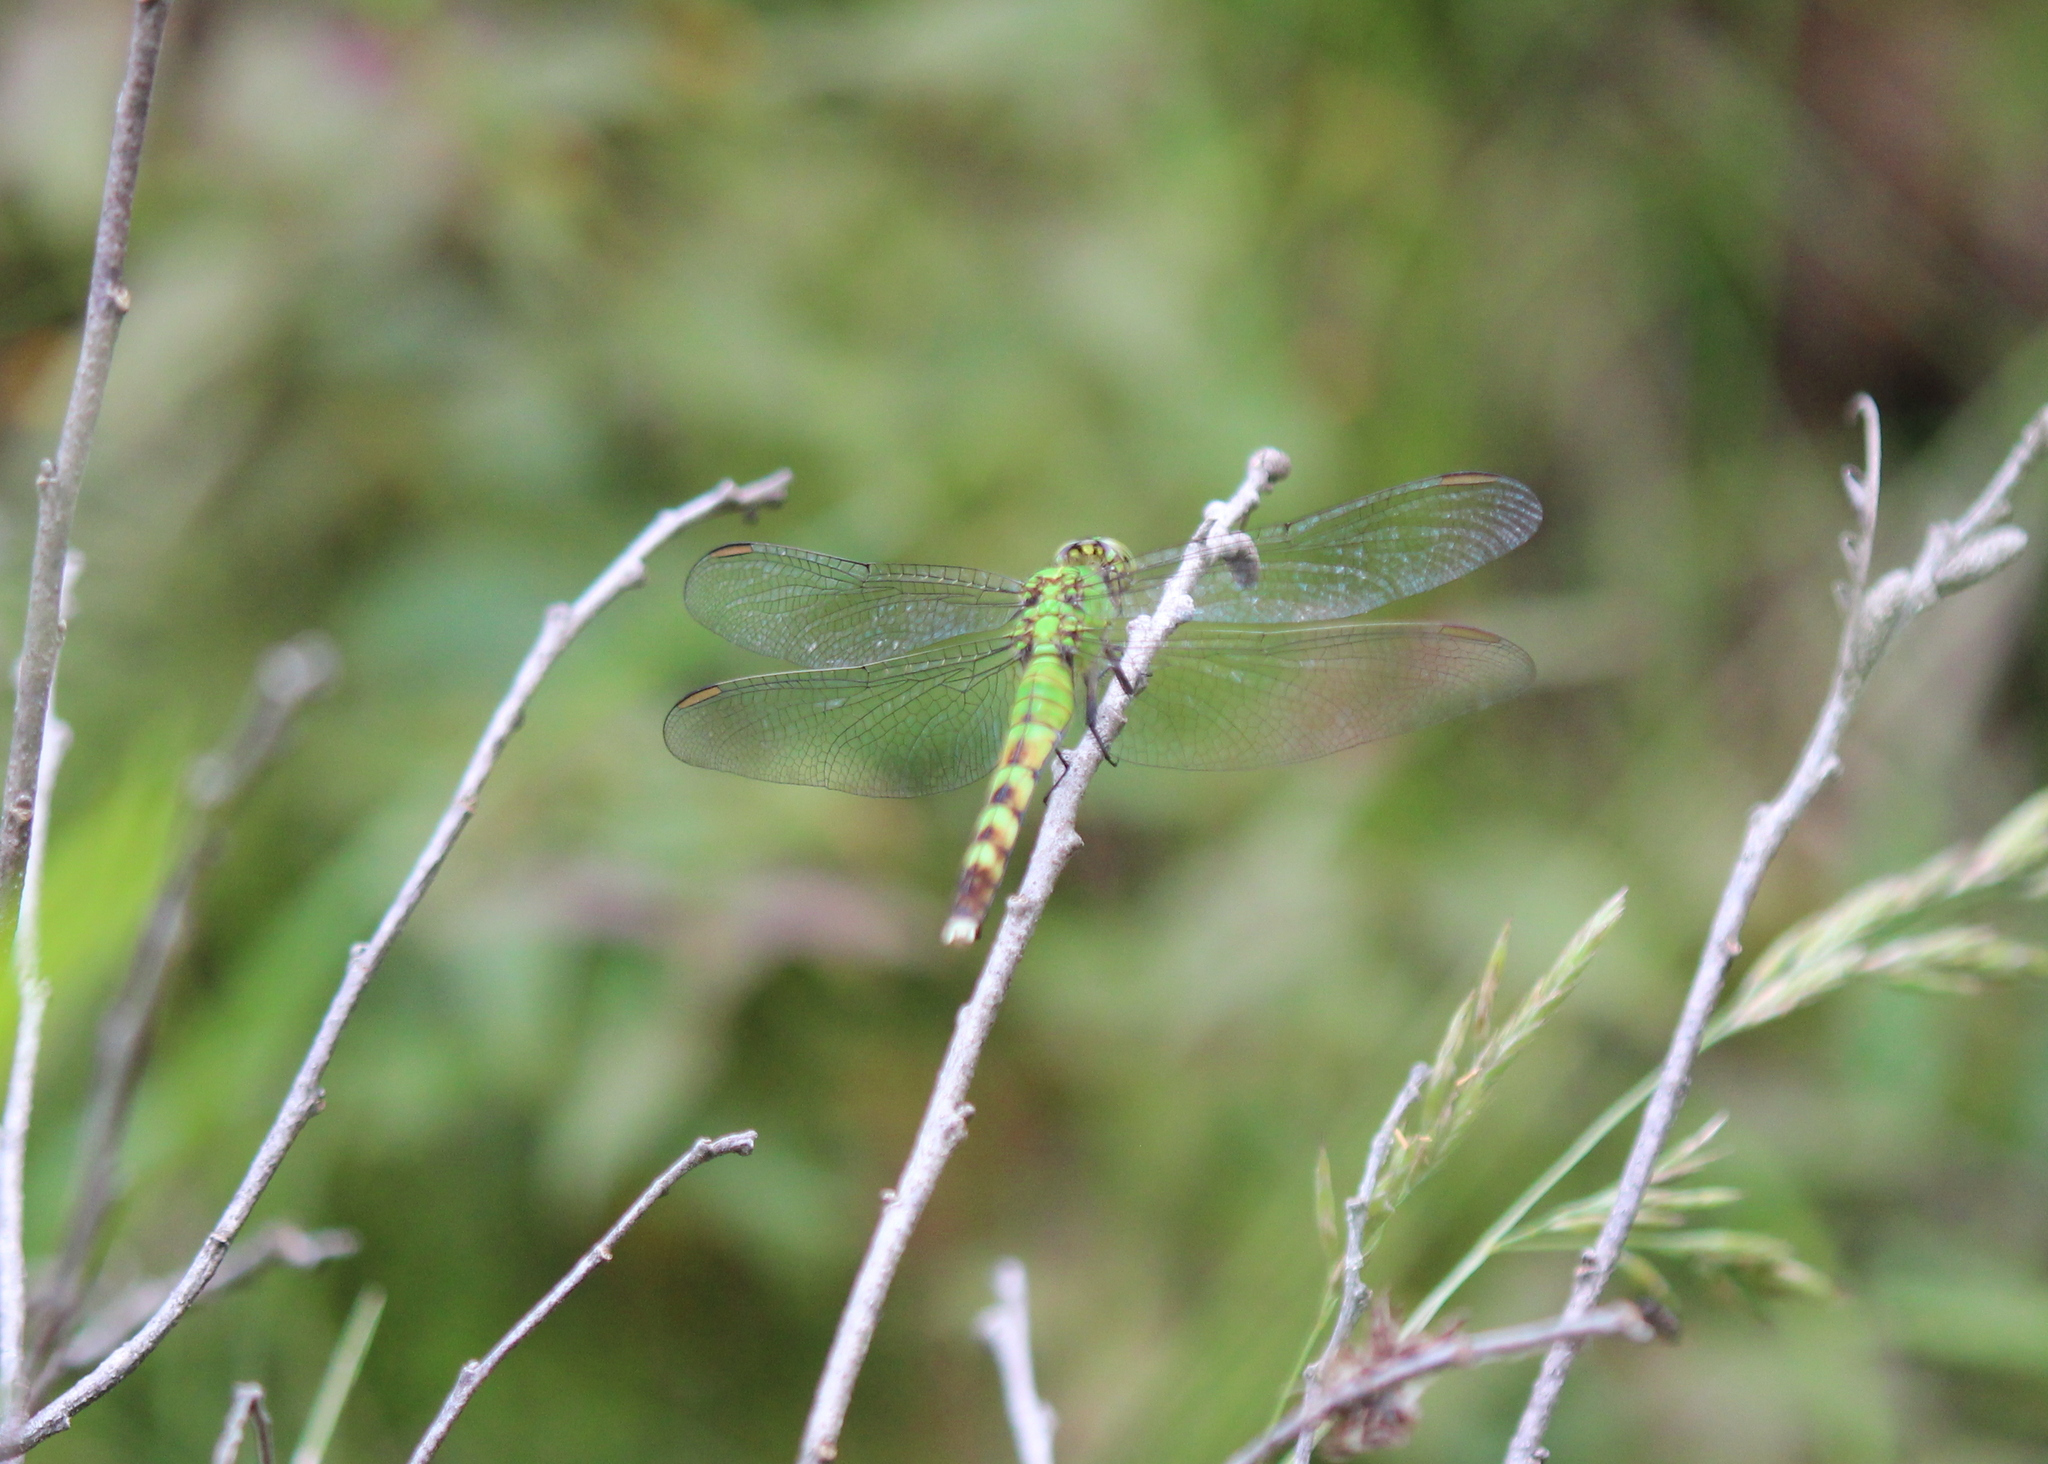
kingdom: Animalia
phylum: Arthropoda
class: Insecta
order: Odonata
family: Libellulidae
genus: Erythemis
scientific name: Erythemis simplicicollis
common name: Eastern pondhawk
